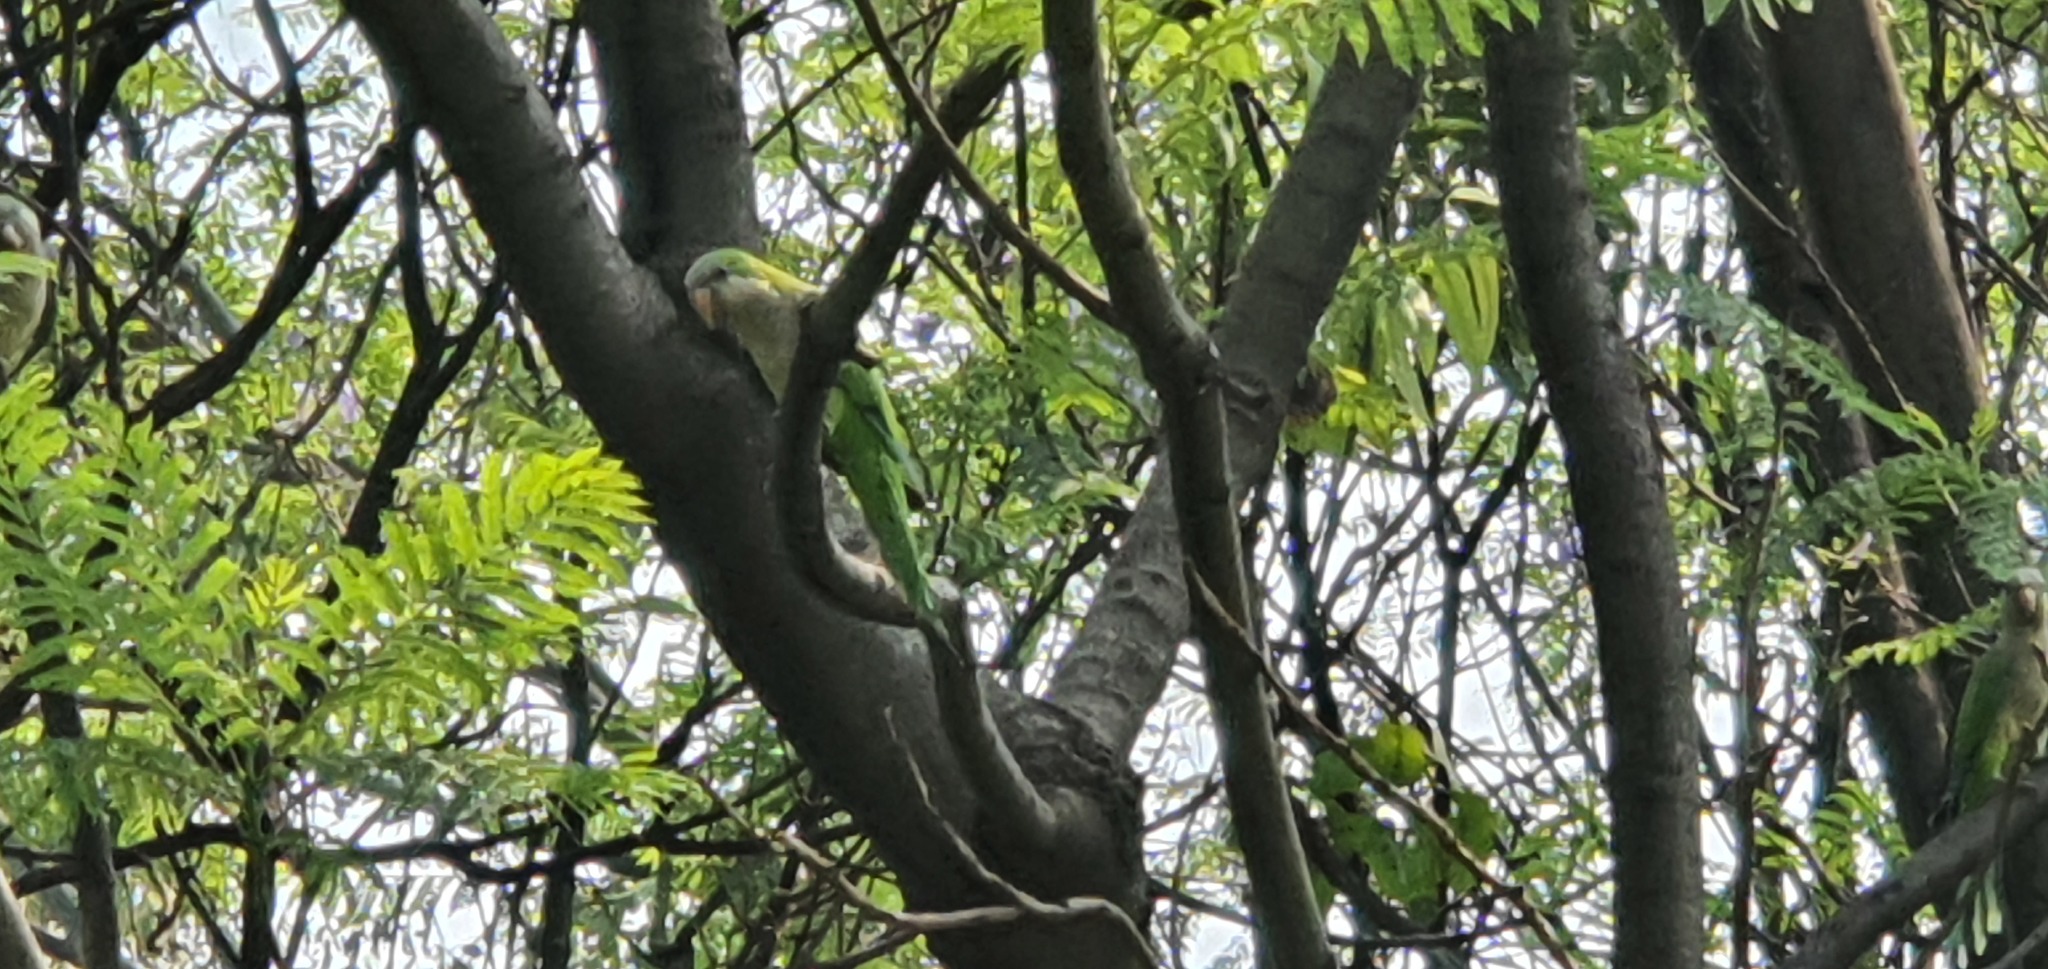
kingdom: Animalia
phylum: Chordata
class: Aves
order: Psittaciformes
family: Psittacidae
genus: Myiopsitta
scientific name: Myiopsitta monachus
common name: Monk parakeet
